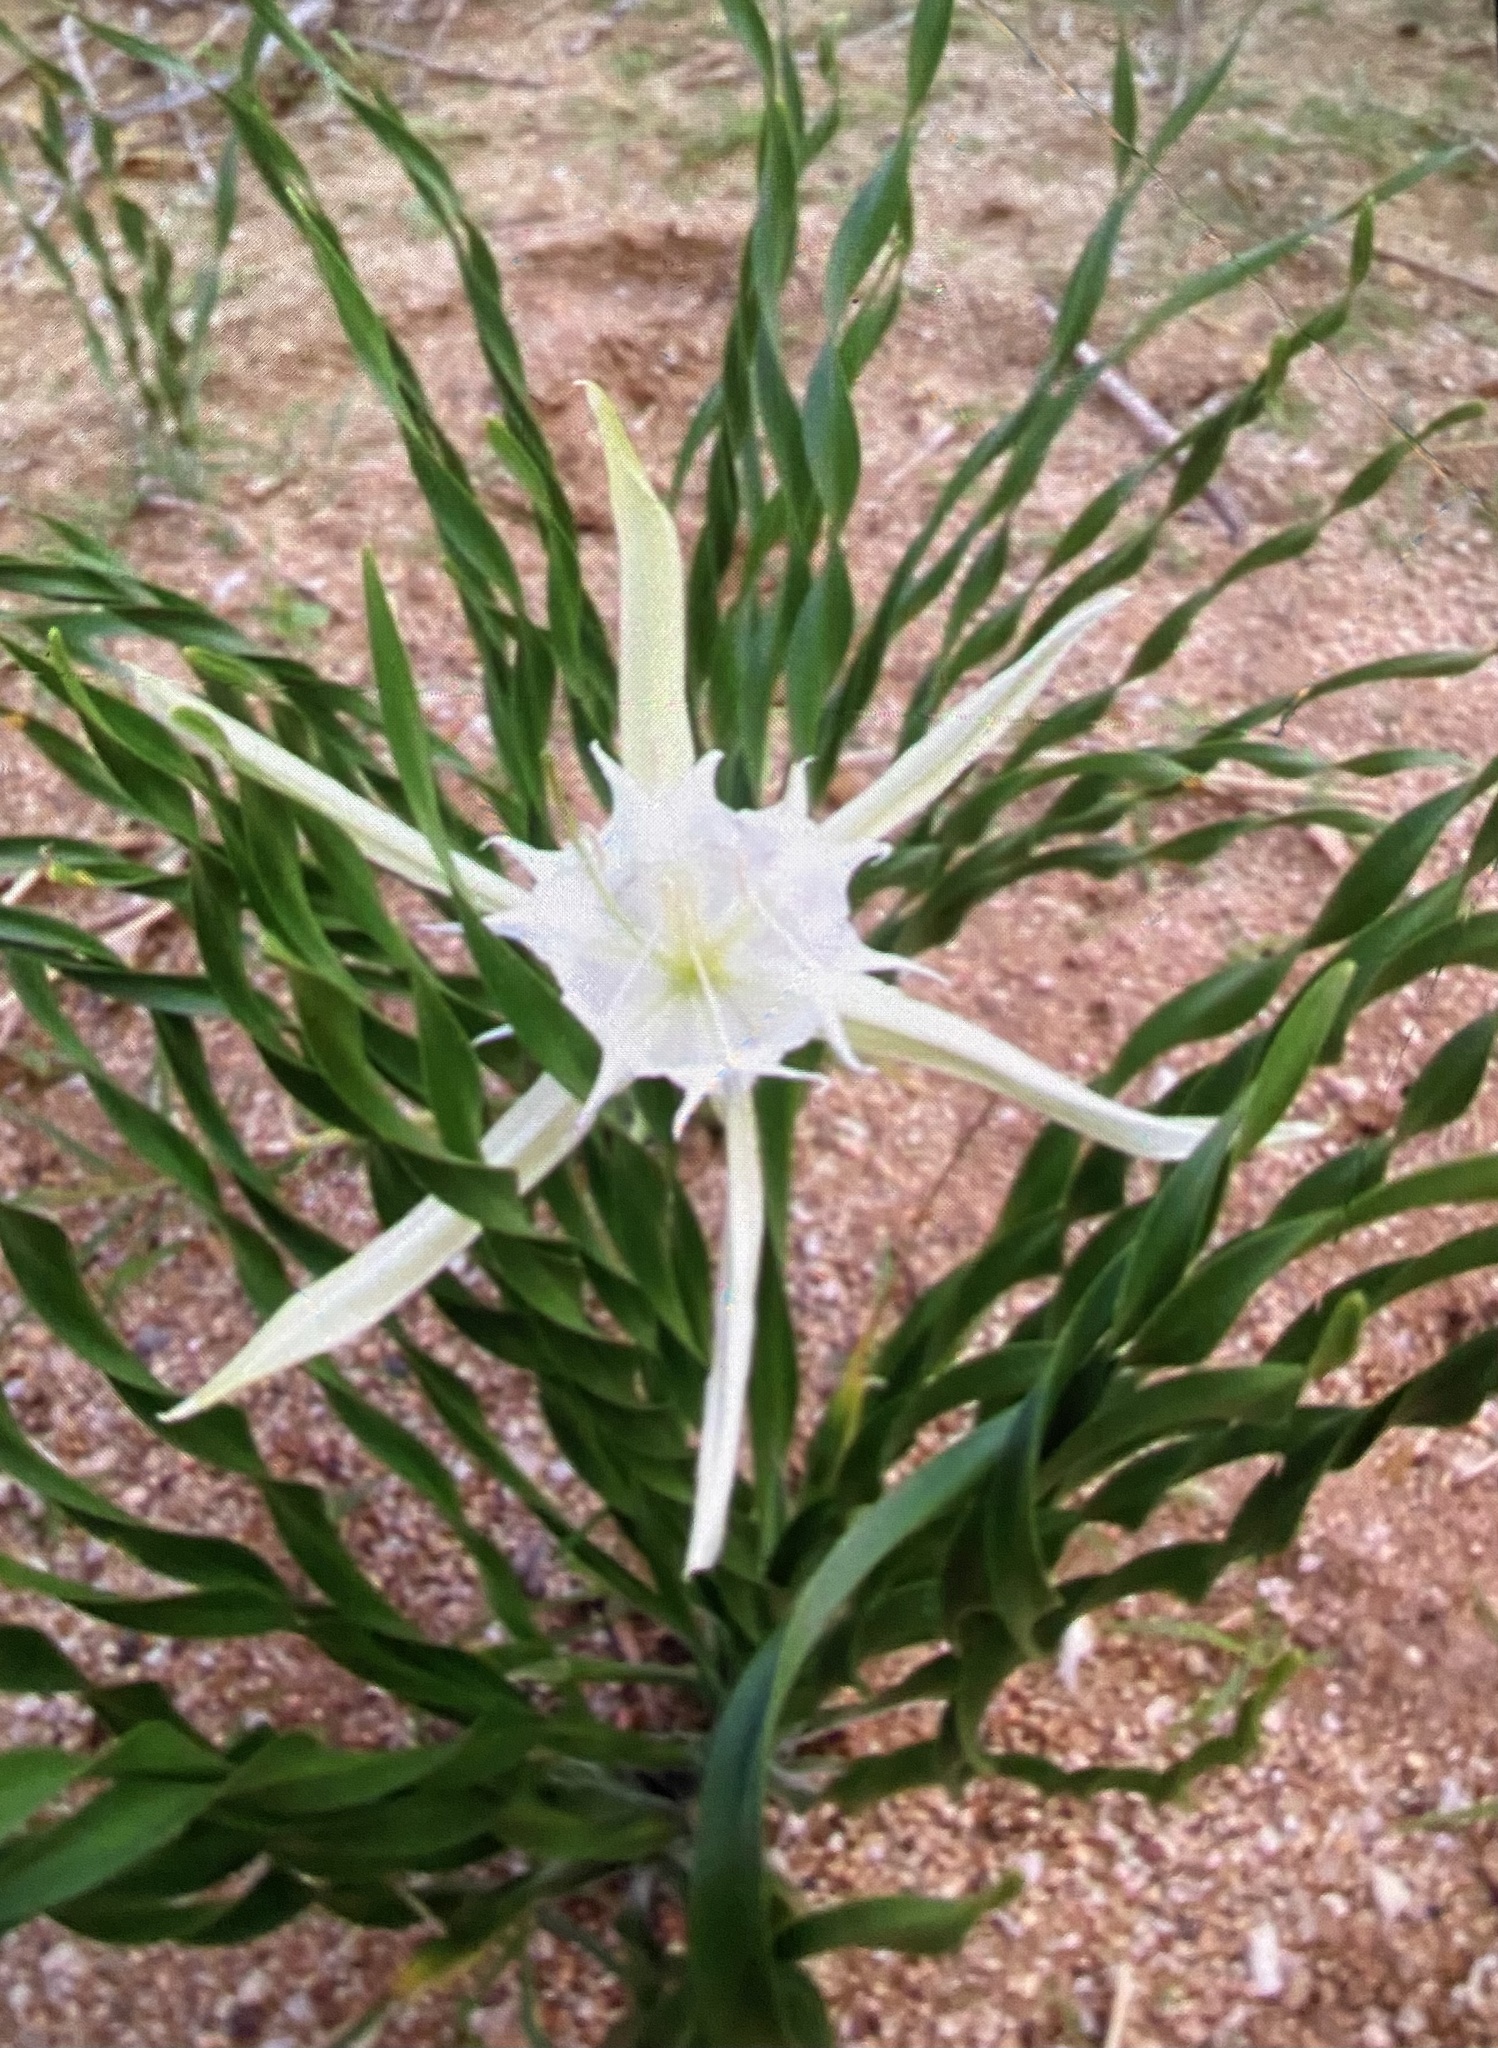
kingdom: Plantae
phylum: Tracheophyta
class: Liliopsida
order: Asparagales
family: Amaryllidaceae
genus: Pancratium
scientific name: Pancratium tenuifolium
